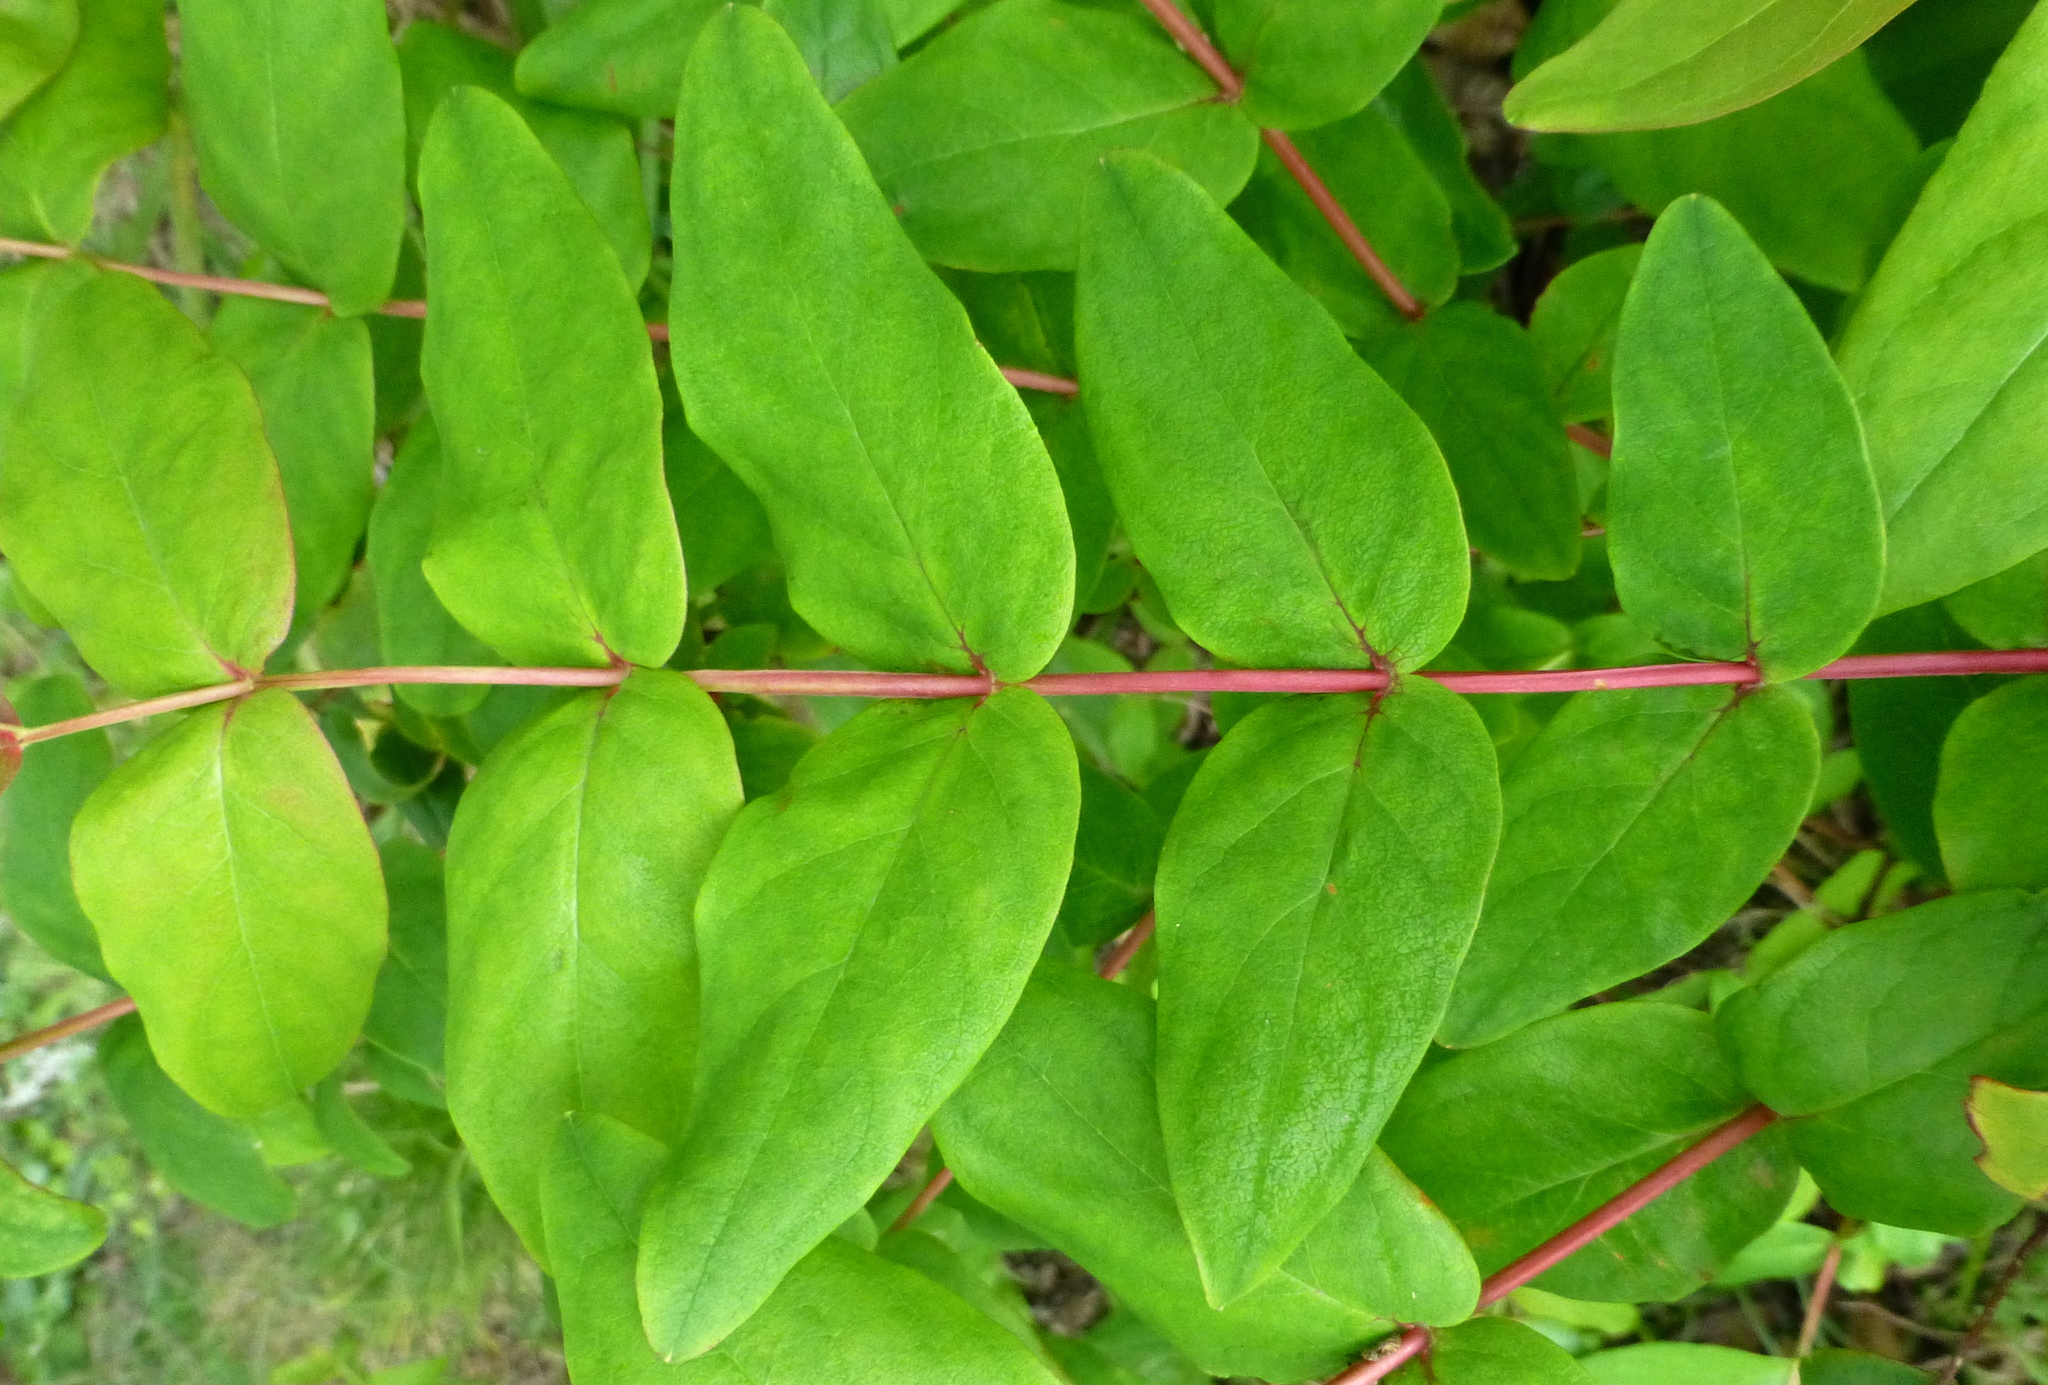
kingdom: Plantae
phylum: Tracheophyta
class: Magnoliopsida
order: Malpighiales
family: Hypericaceae
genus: Hypericum
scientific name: Hypericum androsaemum
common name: Sweet-amber
